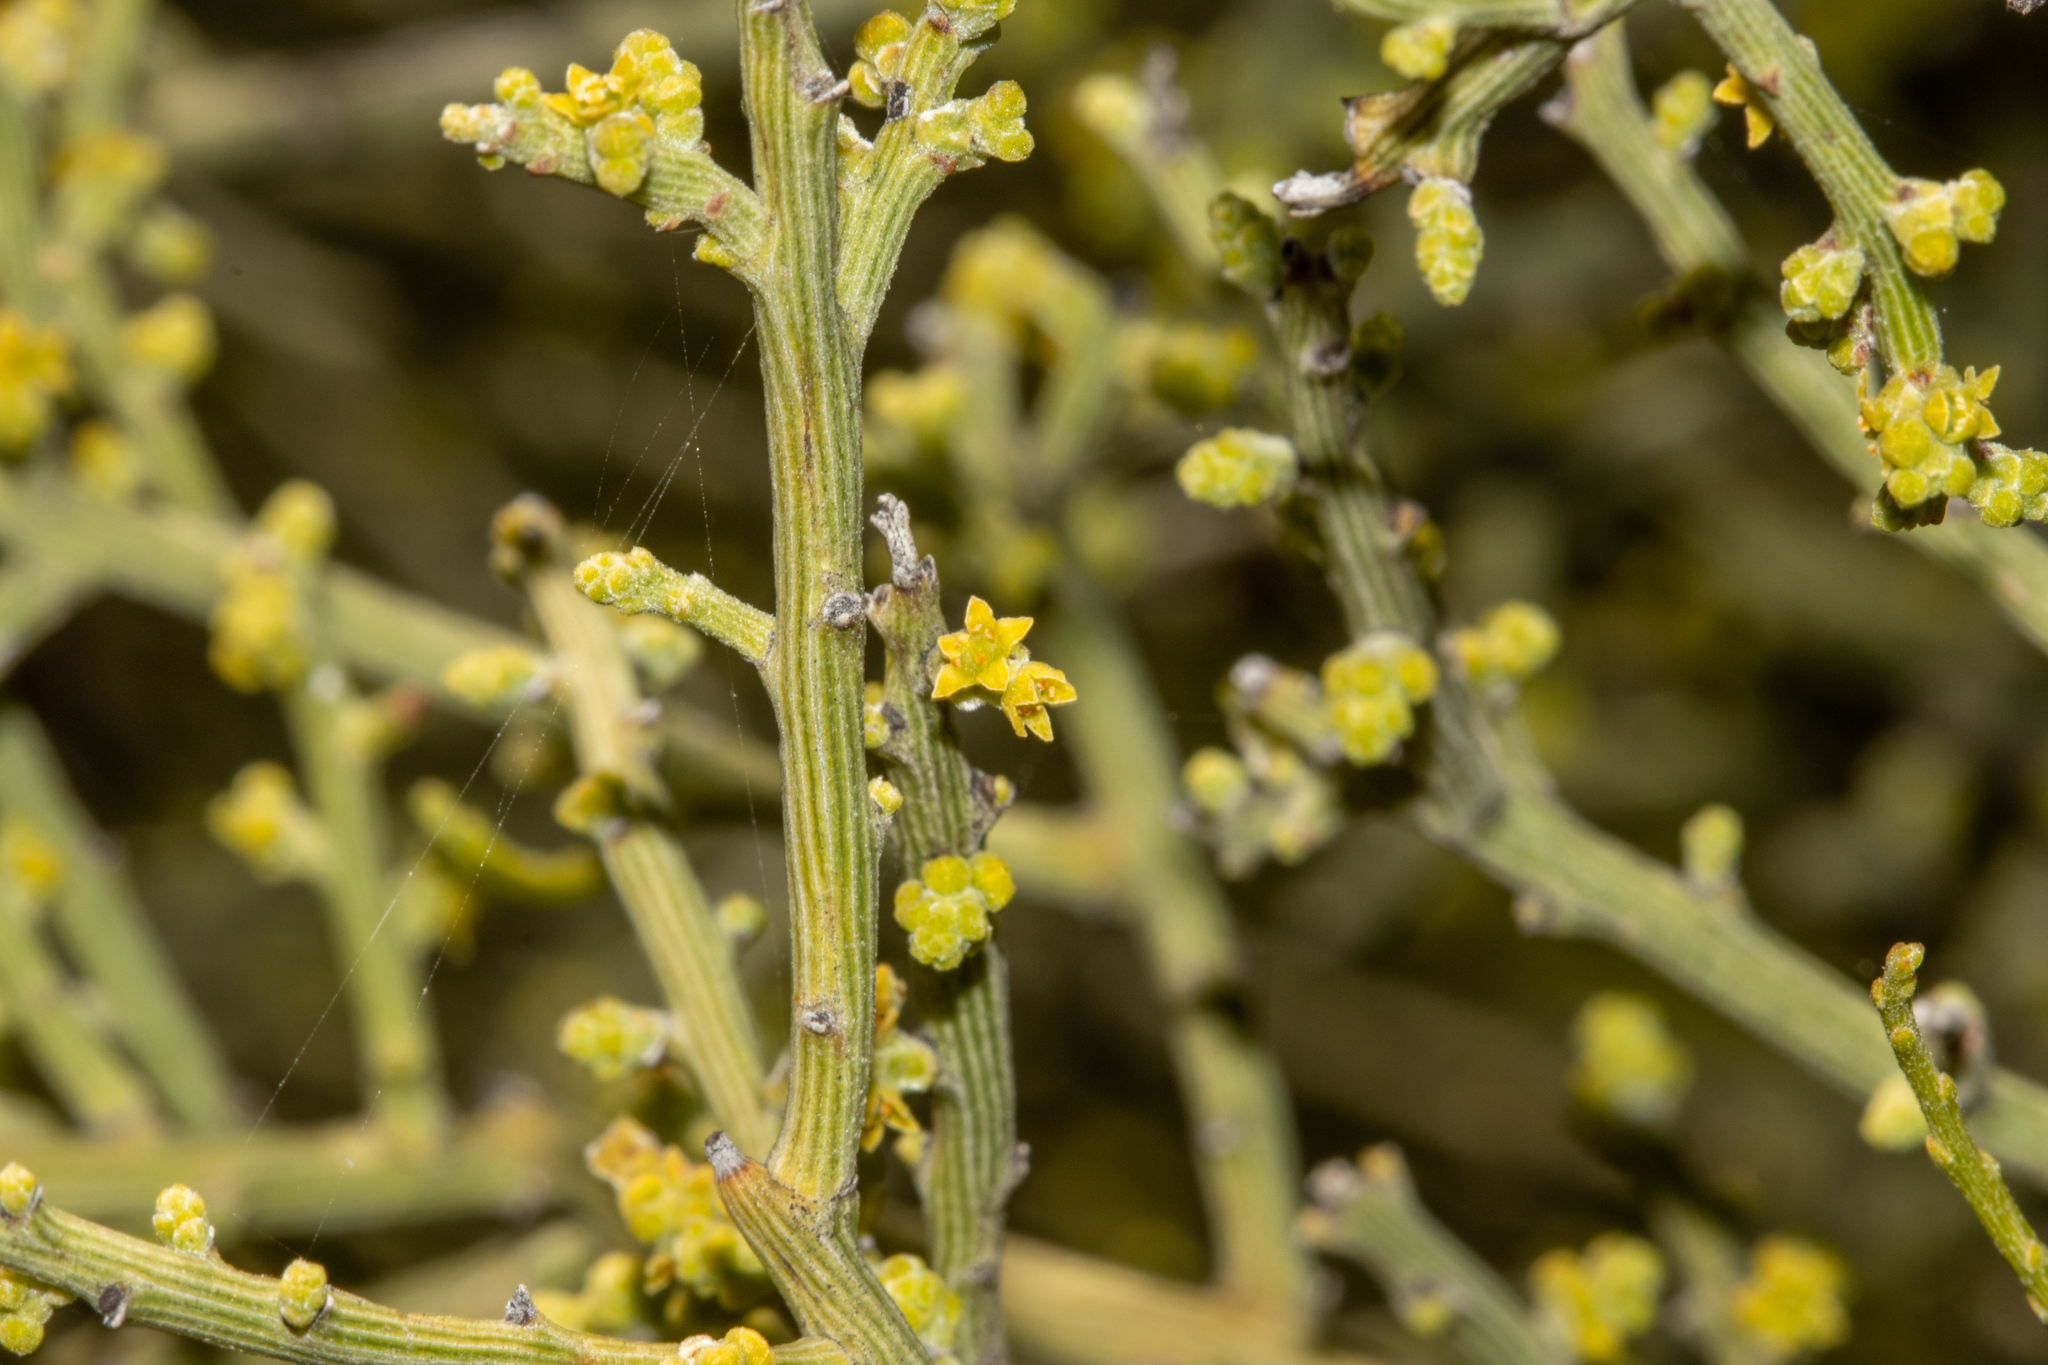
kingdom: Plantae
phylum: Tracheophyta
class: Magnoliopsida
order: Santalales
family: Santalaceae
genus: Exocarpos
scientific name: Exocarpos aphyllus
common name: Leafless ballart
